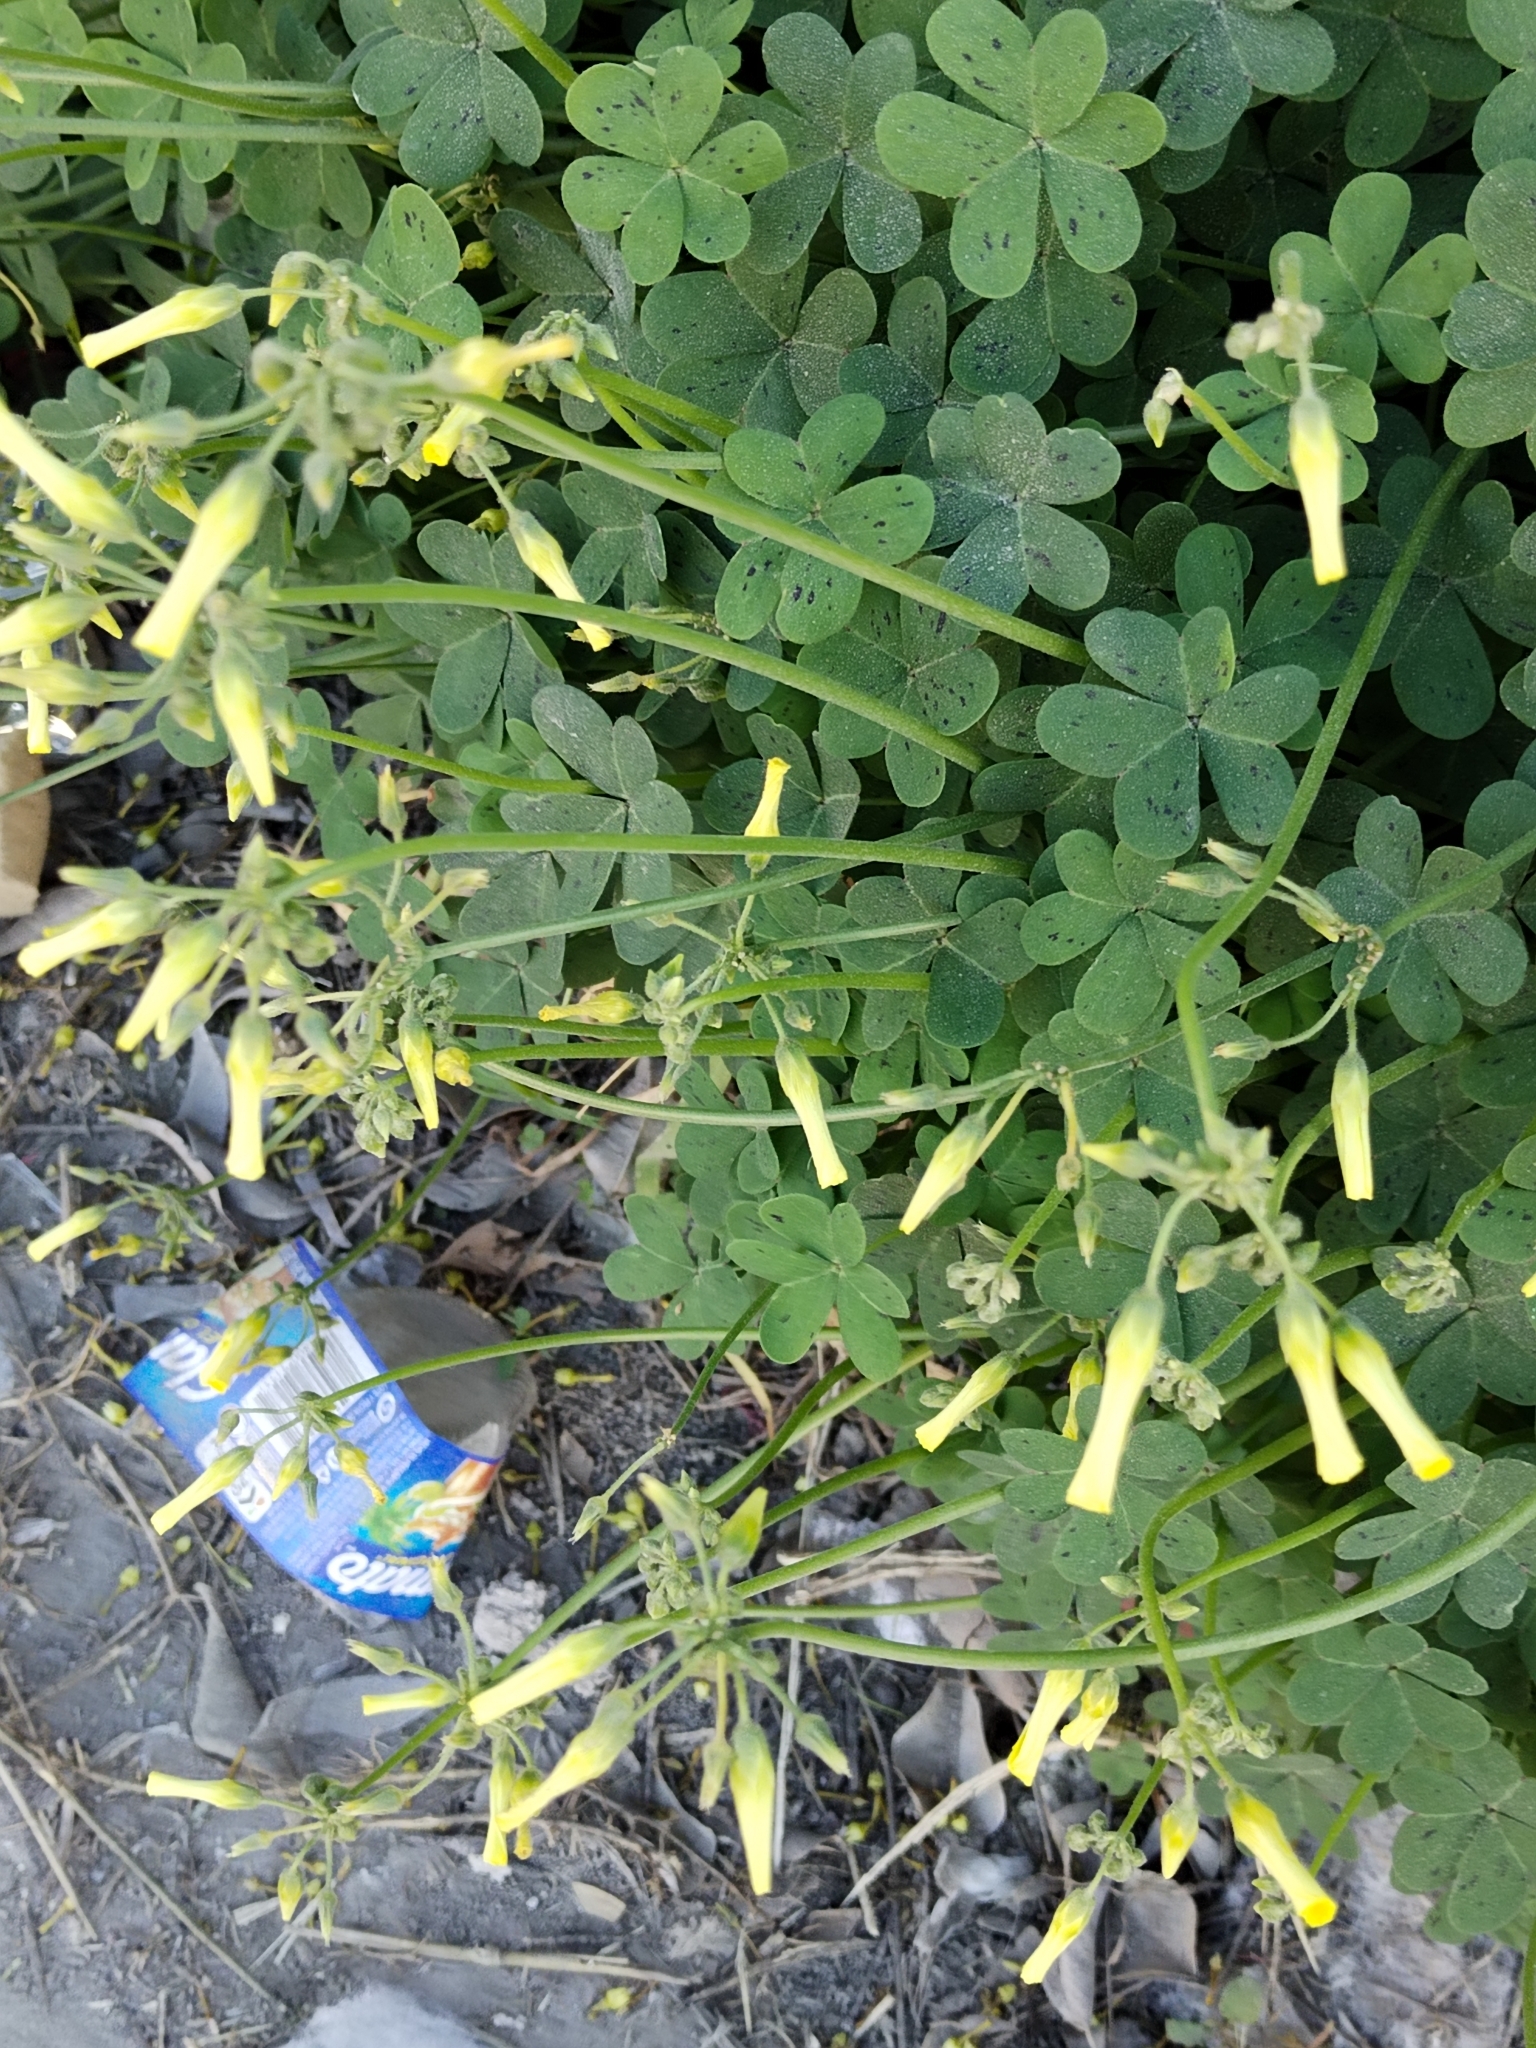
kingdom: Plantae
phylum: Tracheophyta
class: Magnoliopsida
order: Oxalidales
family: Oxalidaceae
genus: Oxalis
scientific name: Oxalis pes-caprae
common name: Bermuda-buttercup
